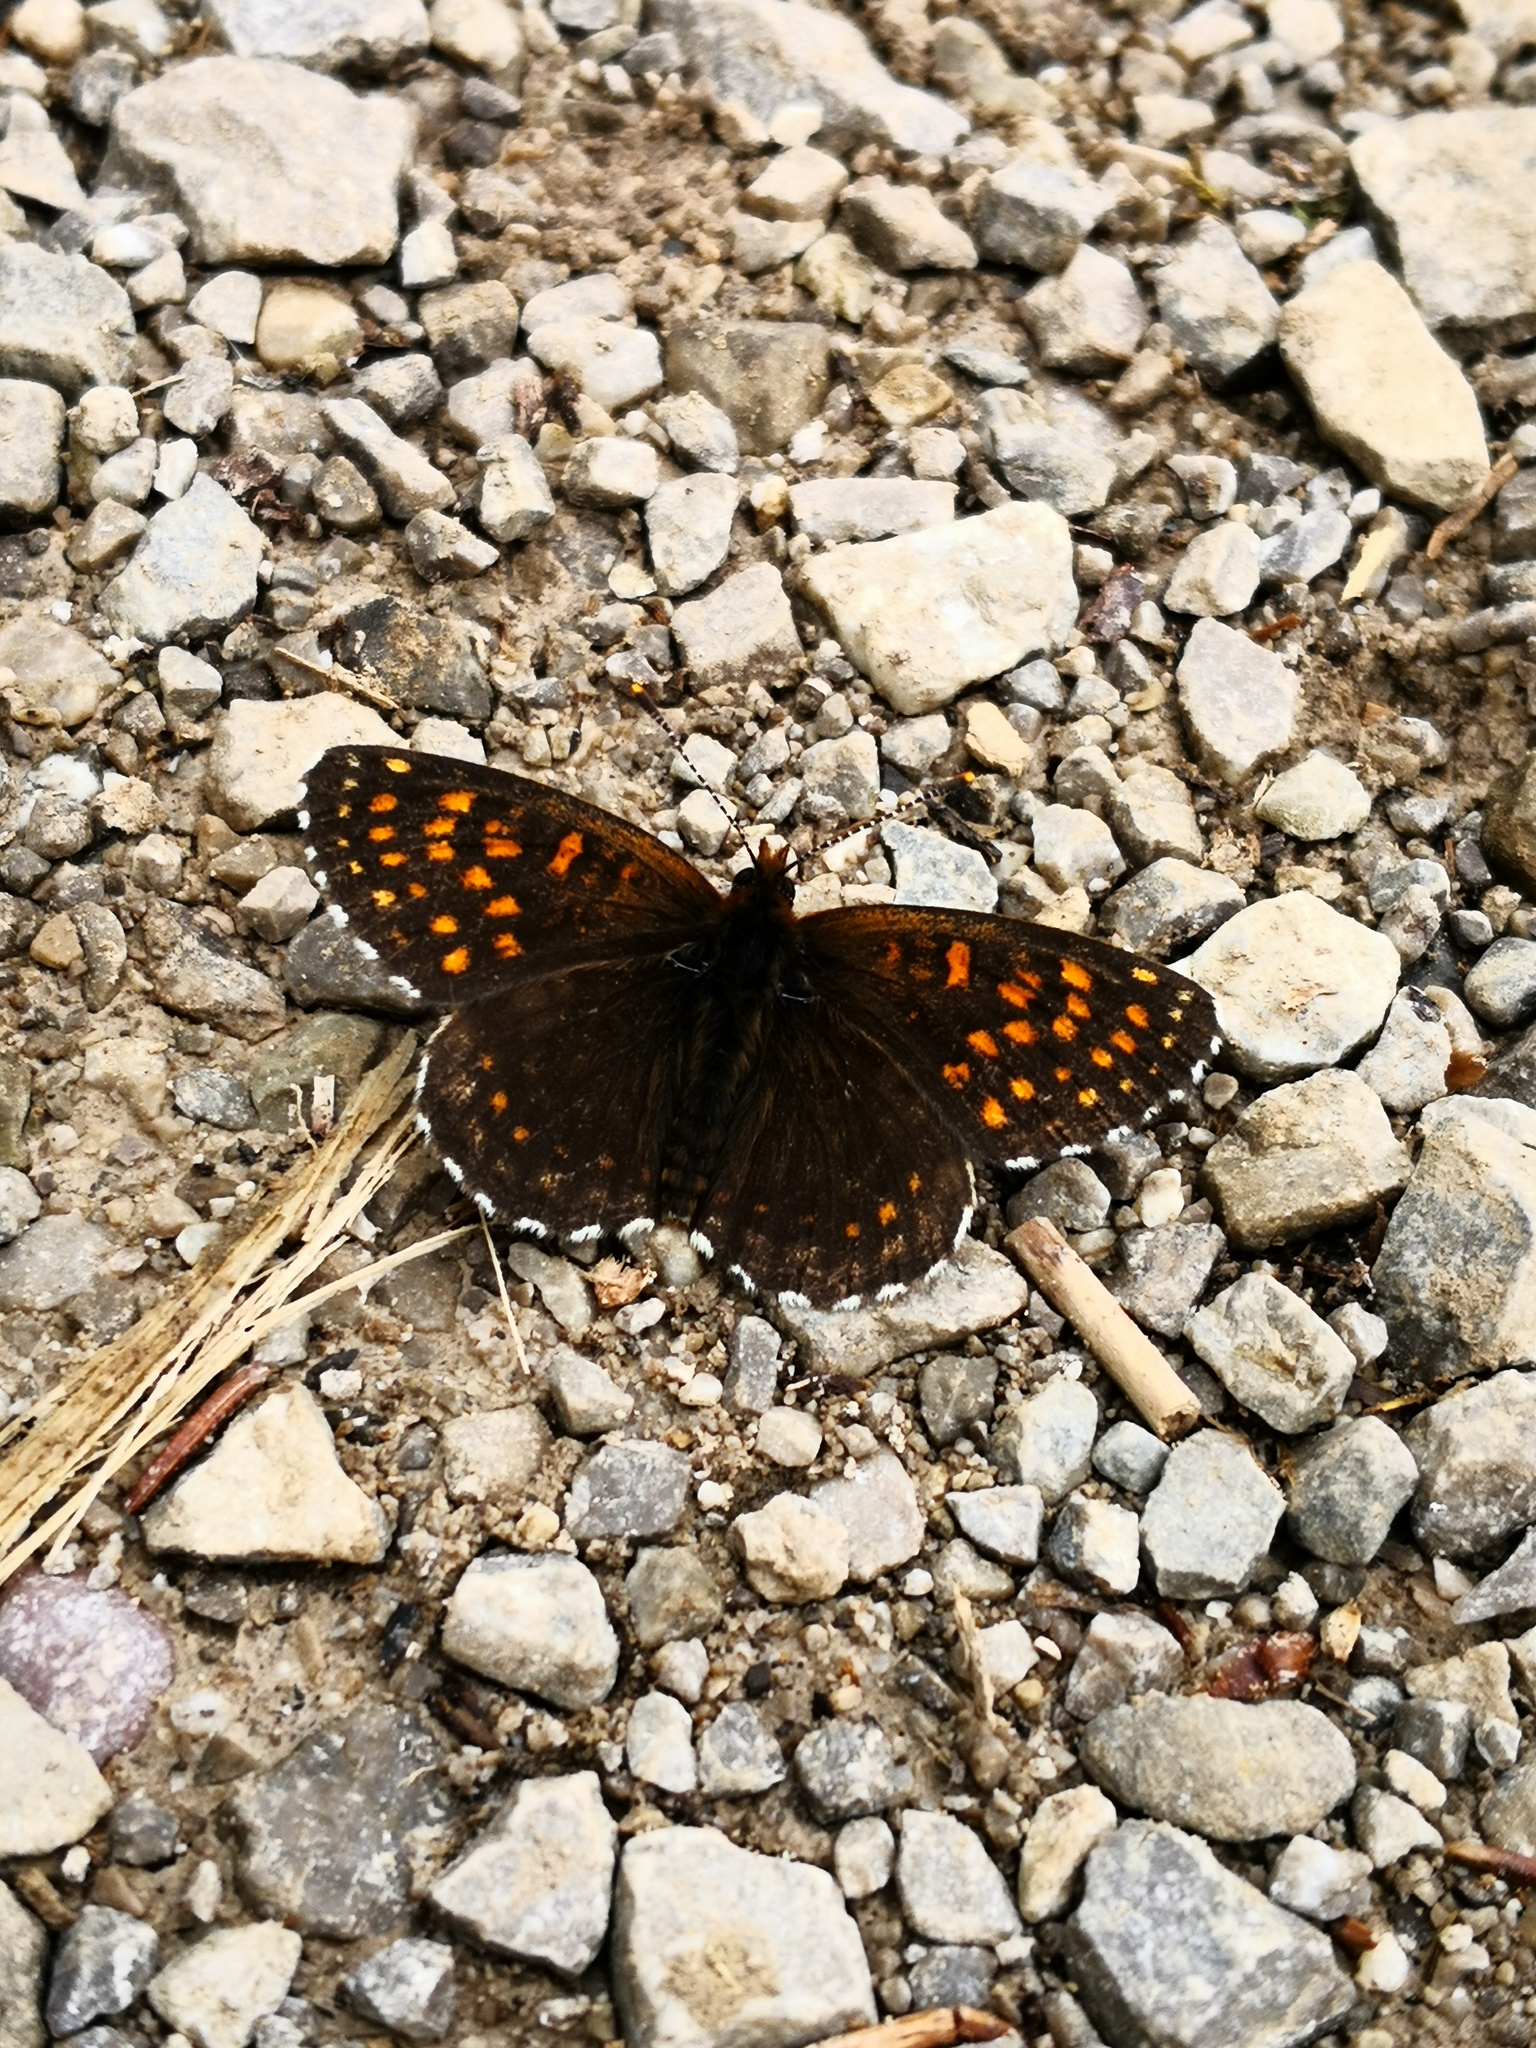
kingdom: Animalia
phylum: Arthropoda
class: Insecta
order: Lepidoptera
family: Nymphalidae
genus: Melitaea
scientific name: Melitaea diamina
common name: False heath fritillary
